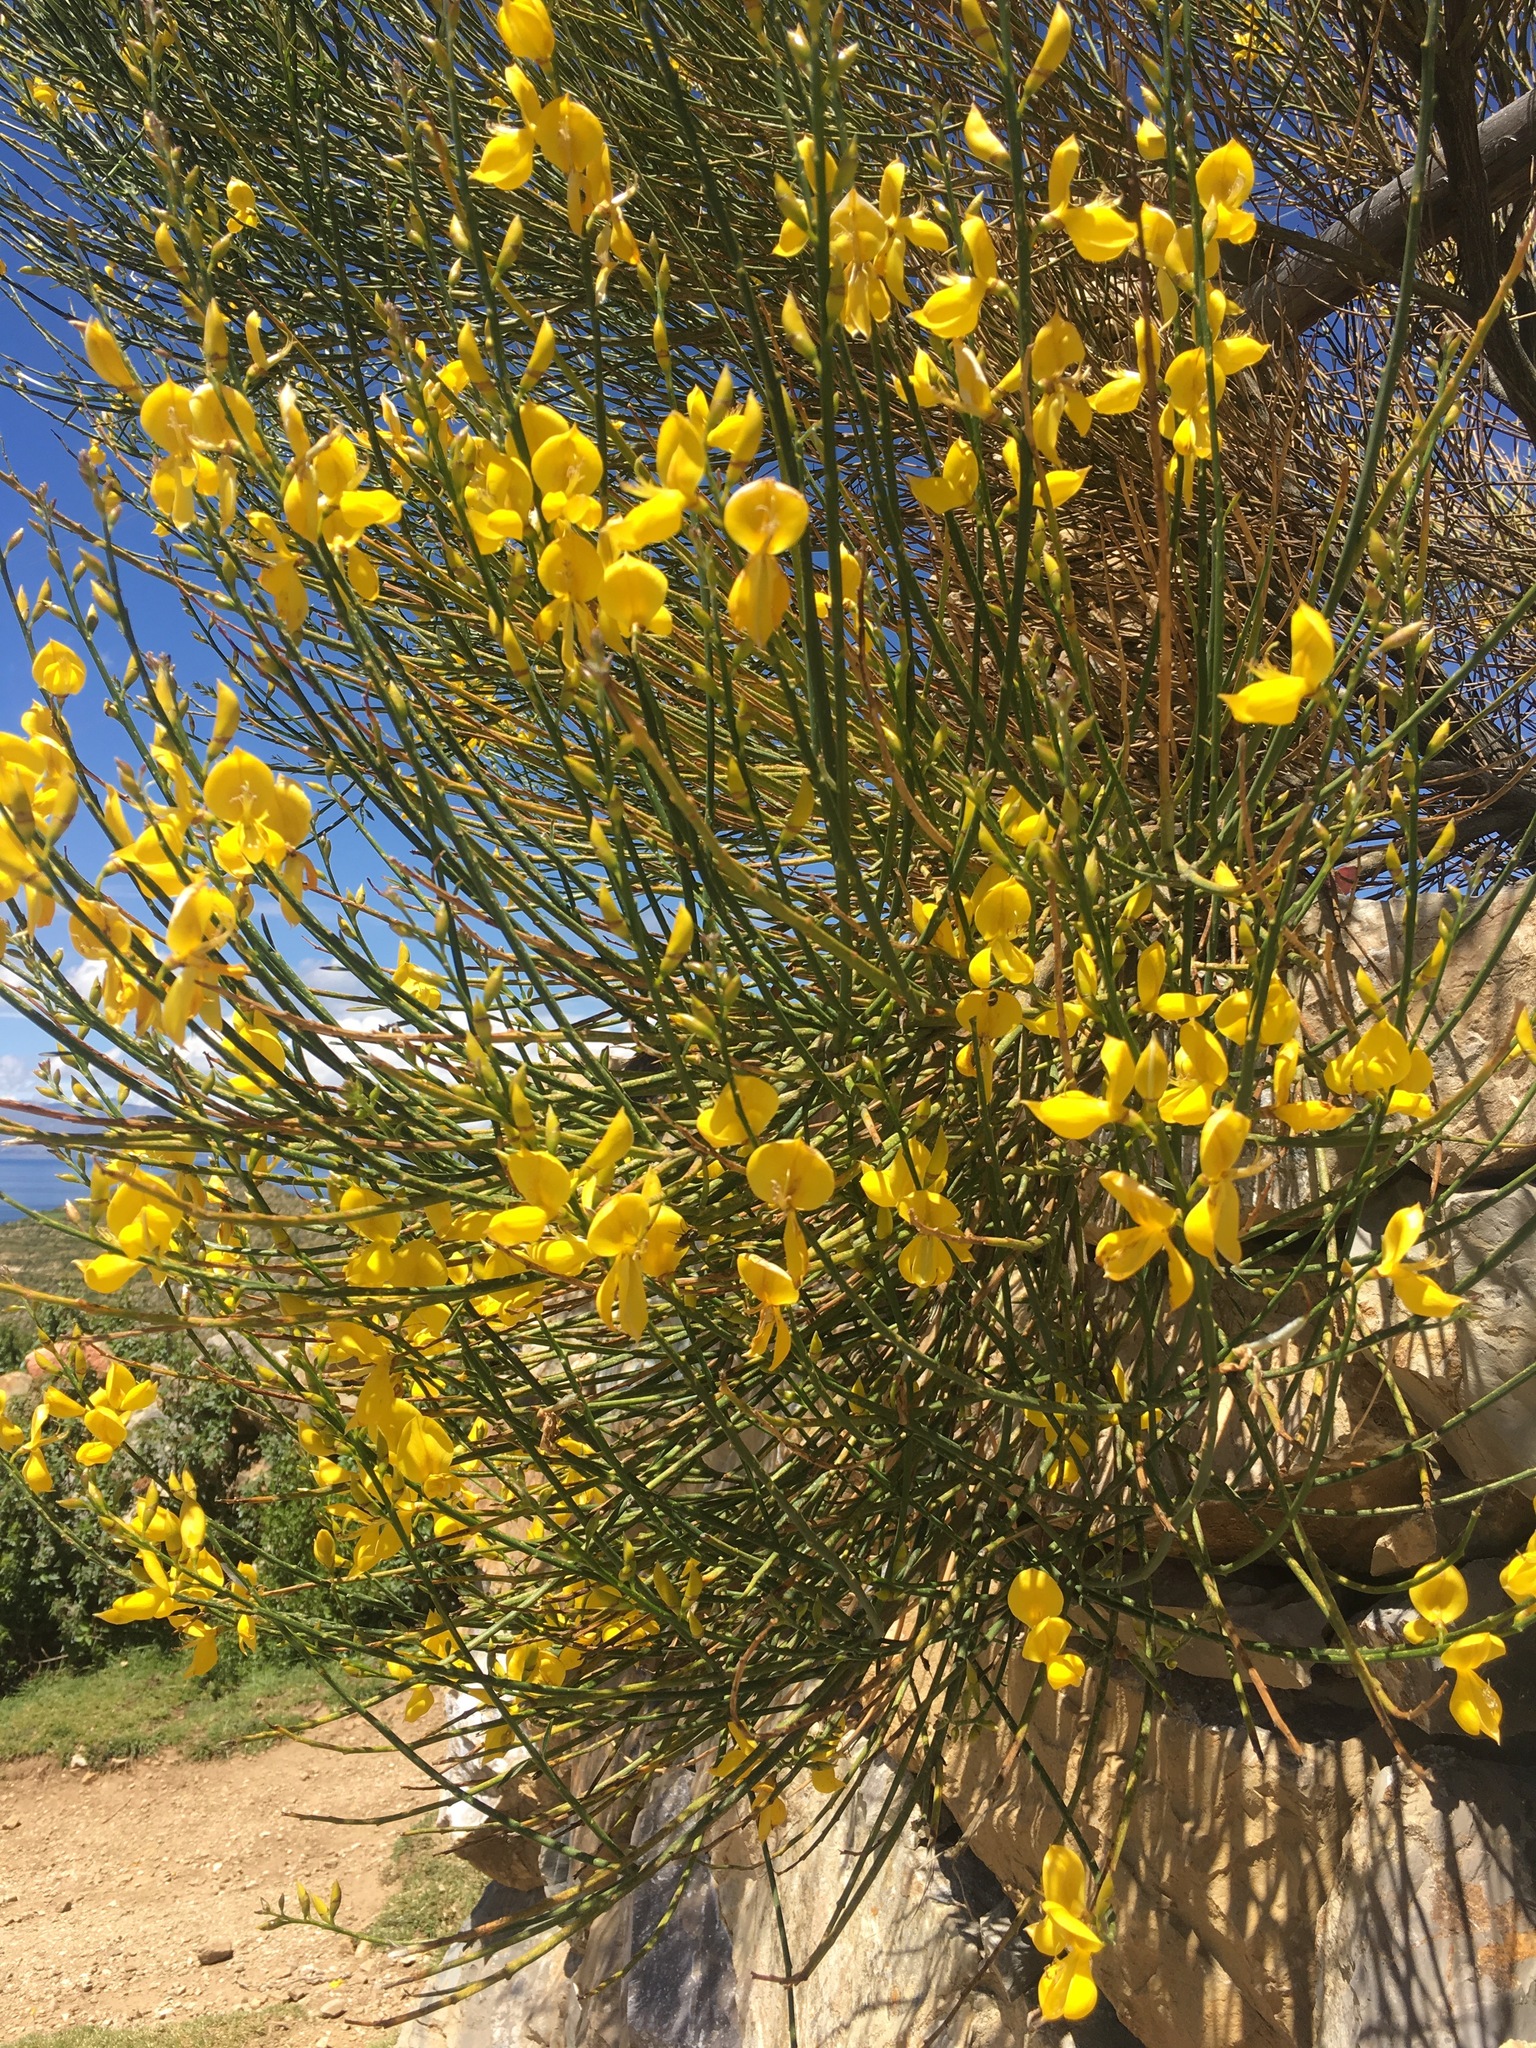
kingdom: Plantae
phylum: Tracheophyta
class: Magnoliopsida
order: Fabales
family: Fabaceae
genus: Spartium
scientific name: Spartium junceum
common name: Spanish broom
